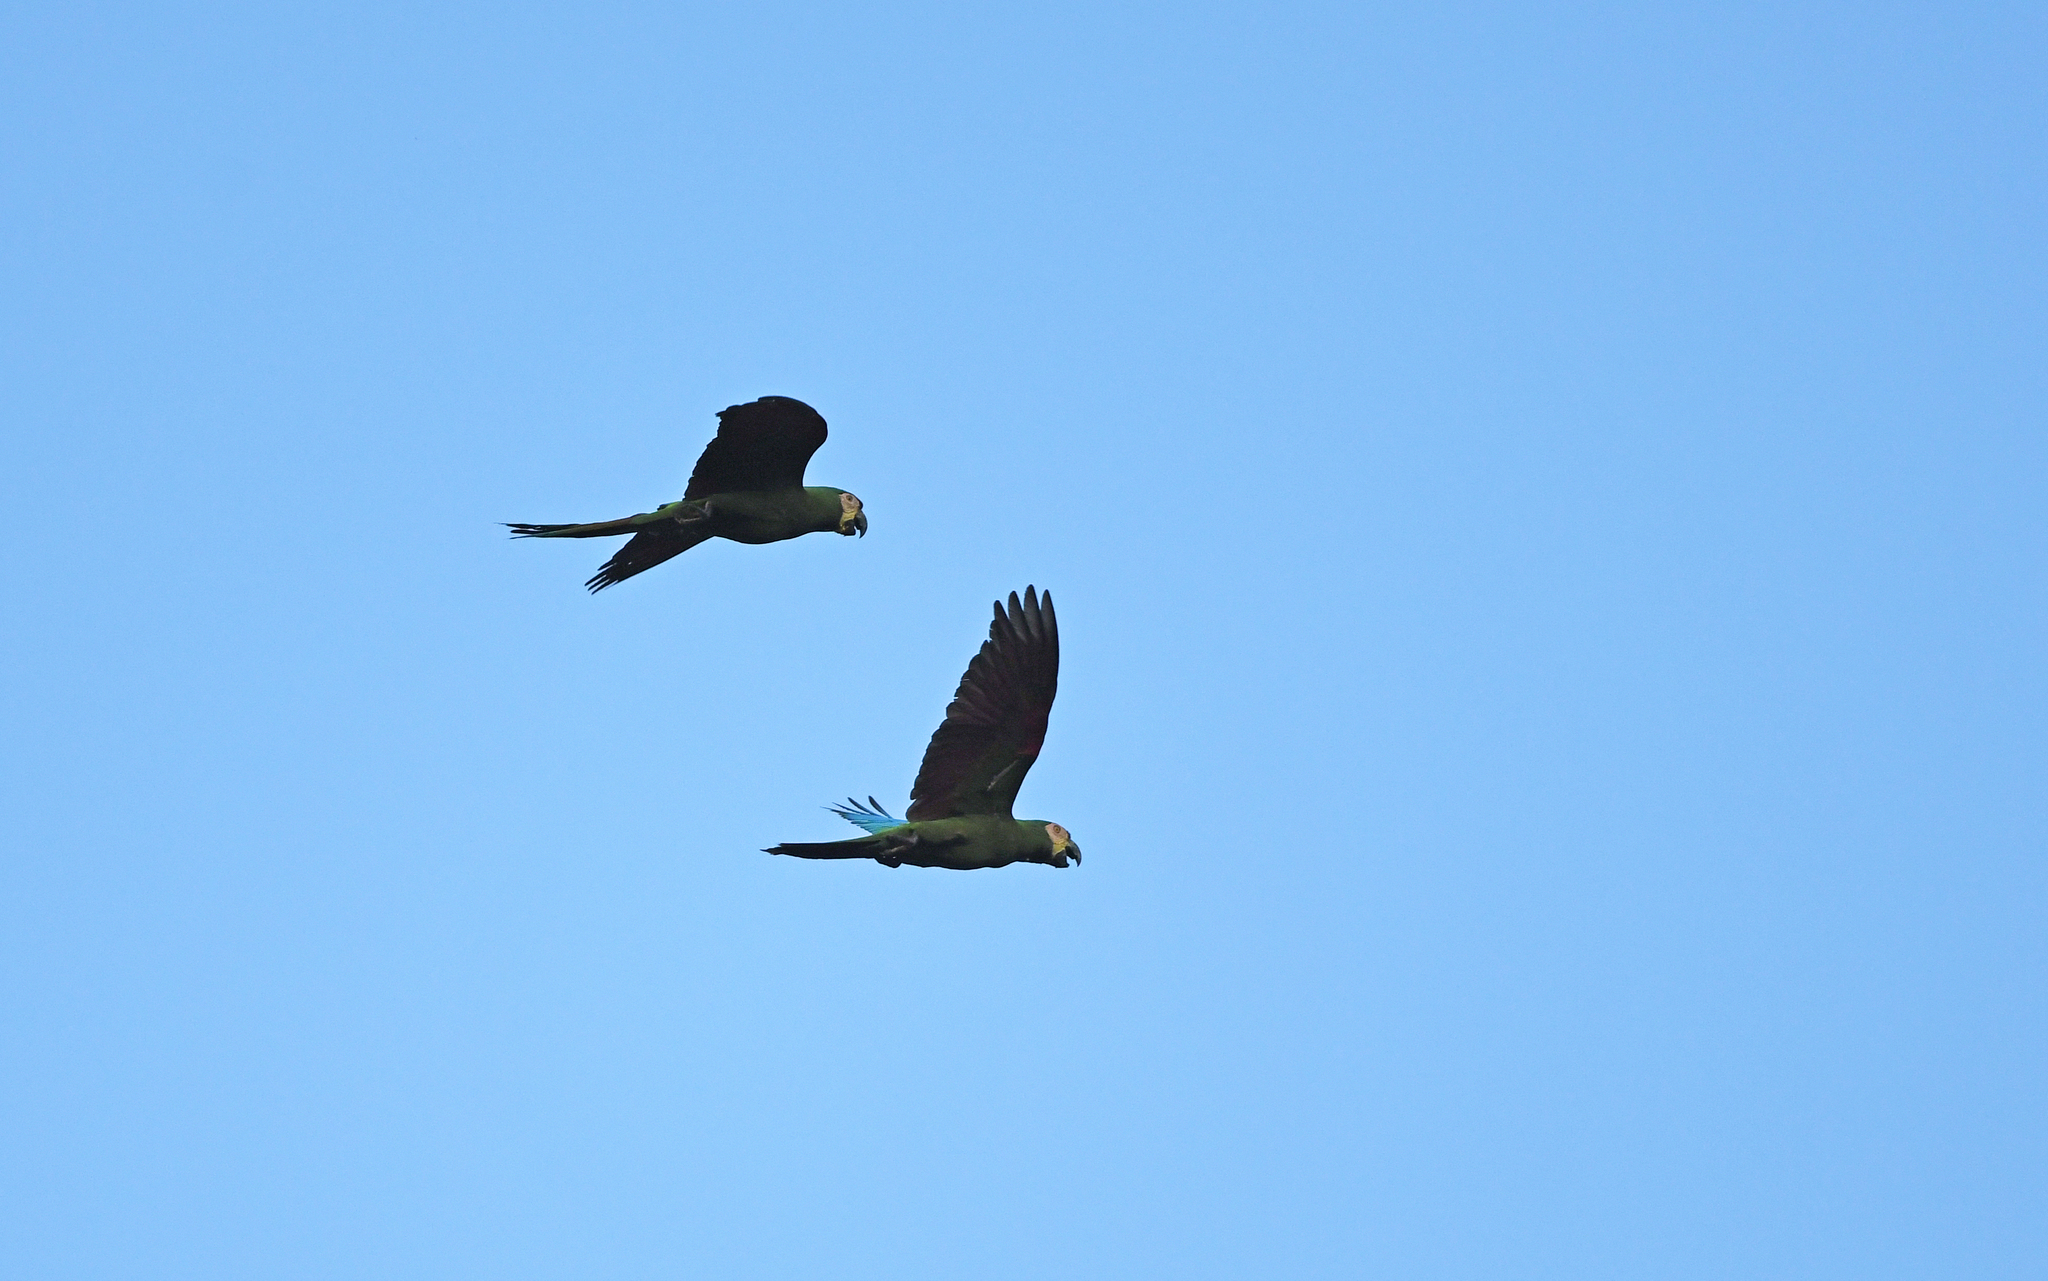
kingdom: Animalia
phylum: Chordata
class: Aves
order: Psittaciformes
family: Psittacidae
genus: Ara
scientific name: Ara severus
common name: Chestnut-fronted macaw
